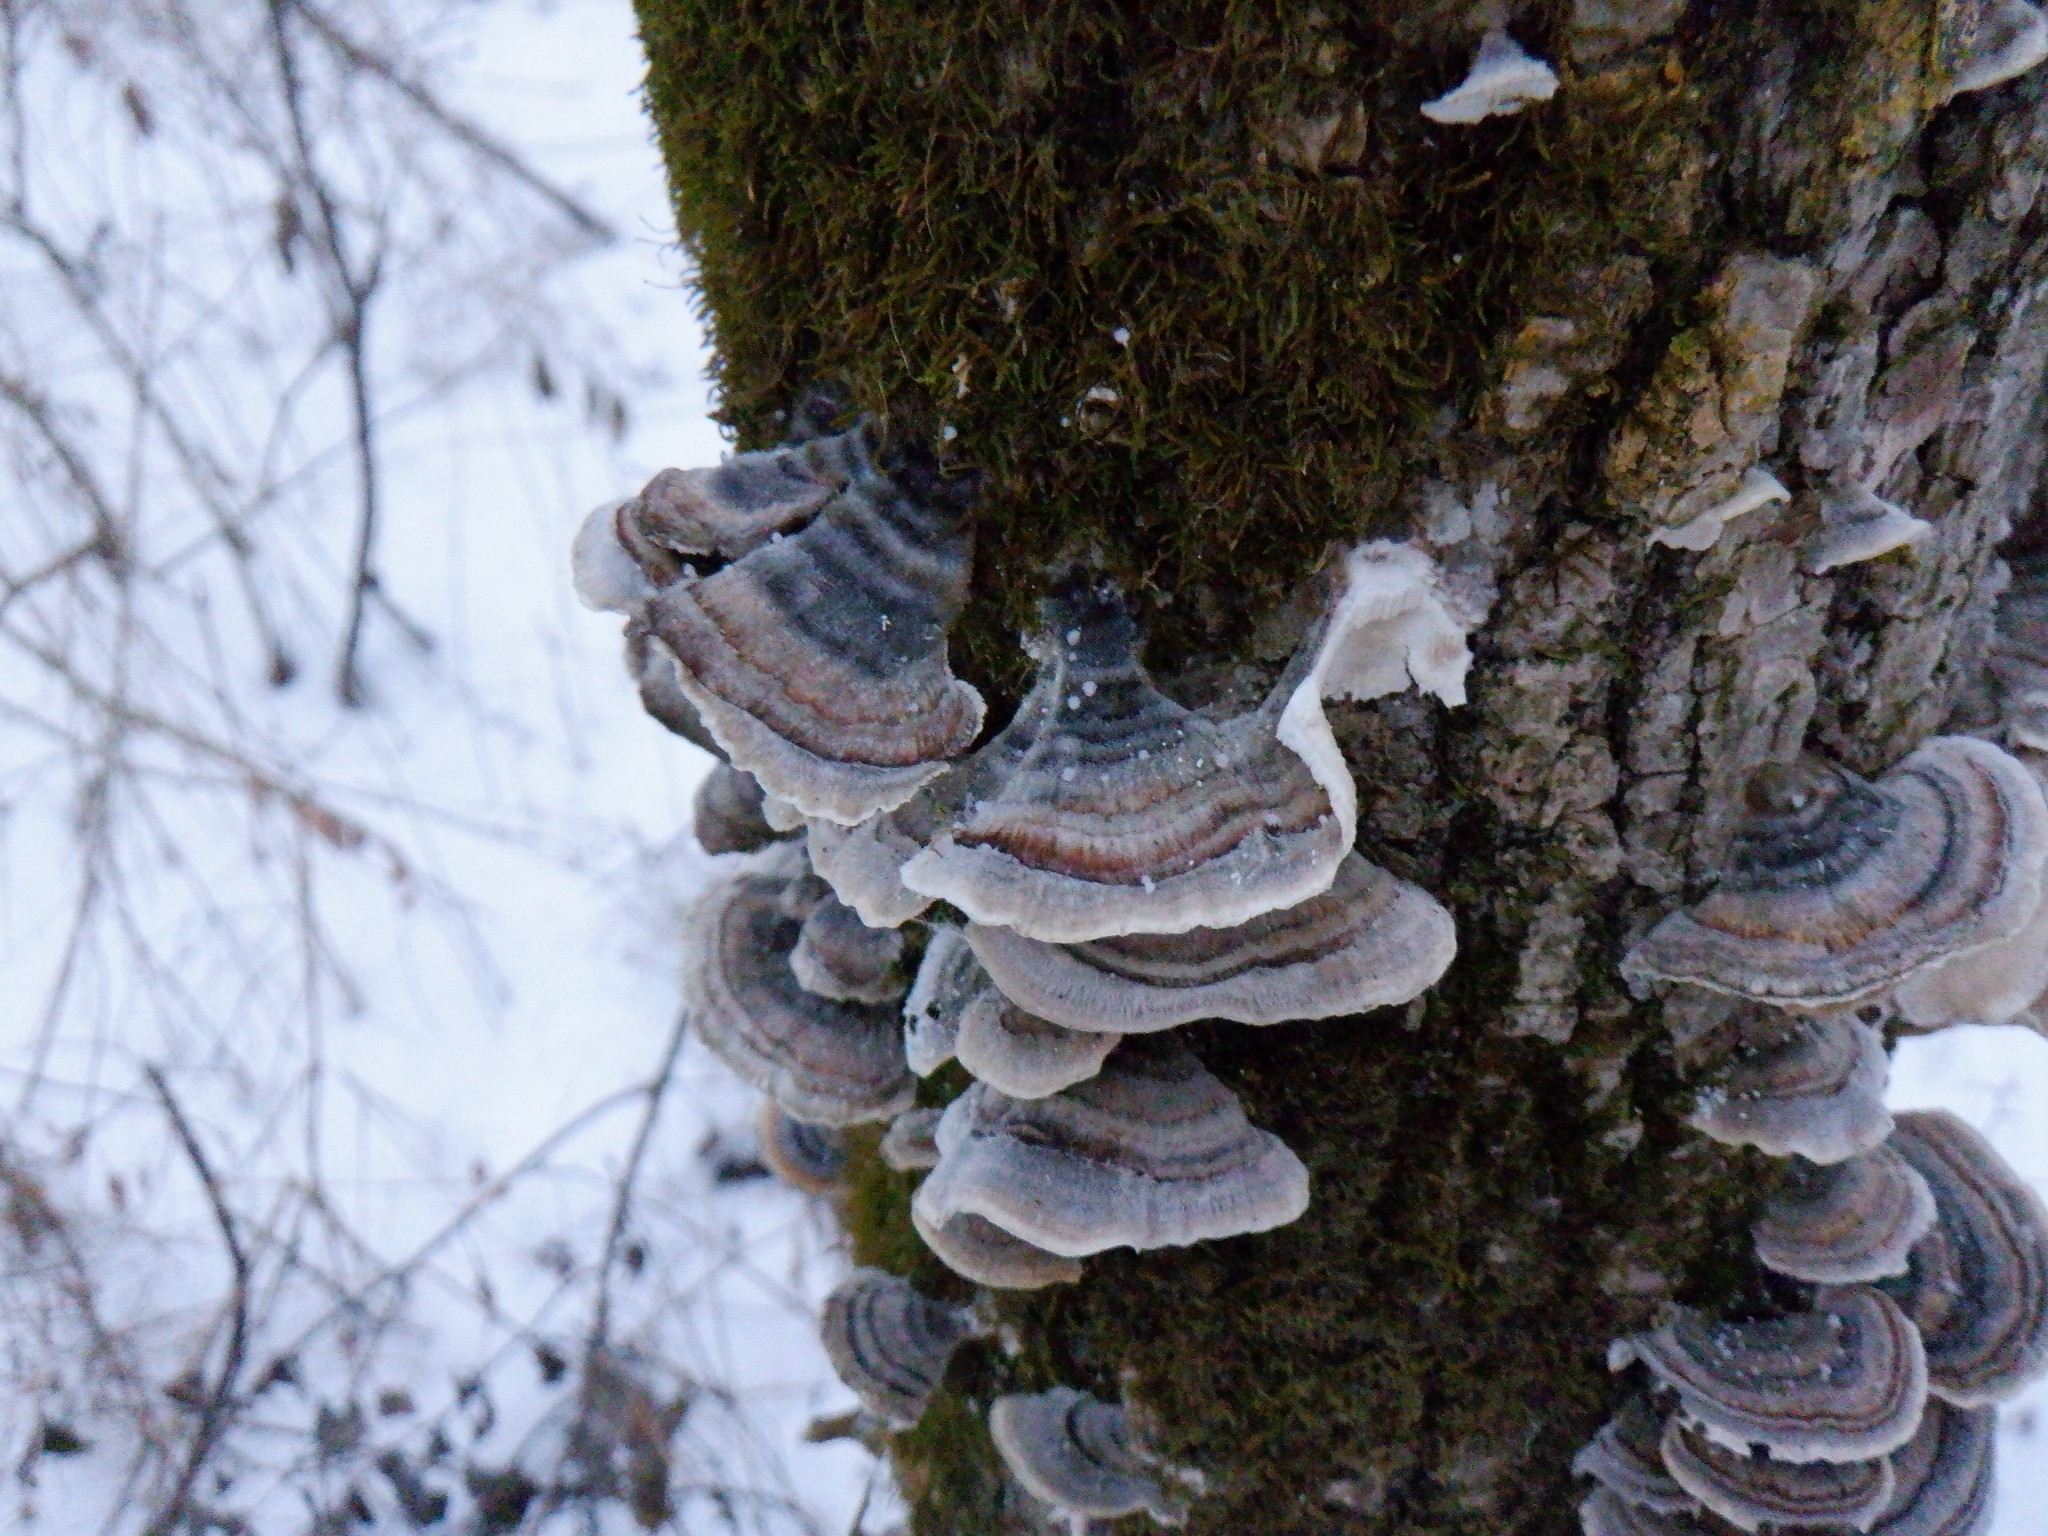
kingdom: Fungi
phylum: Basidiomycota
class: Agaricomycetes
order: Polyporales
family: Polyporaceae
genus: Trametes
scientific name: Trametes versicolor
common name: Turkeytail
